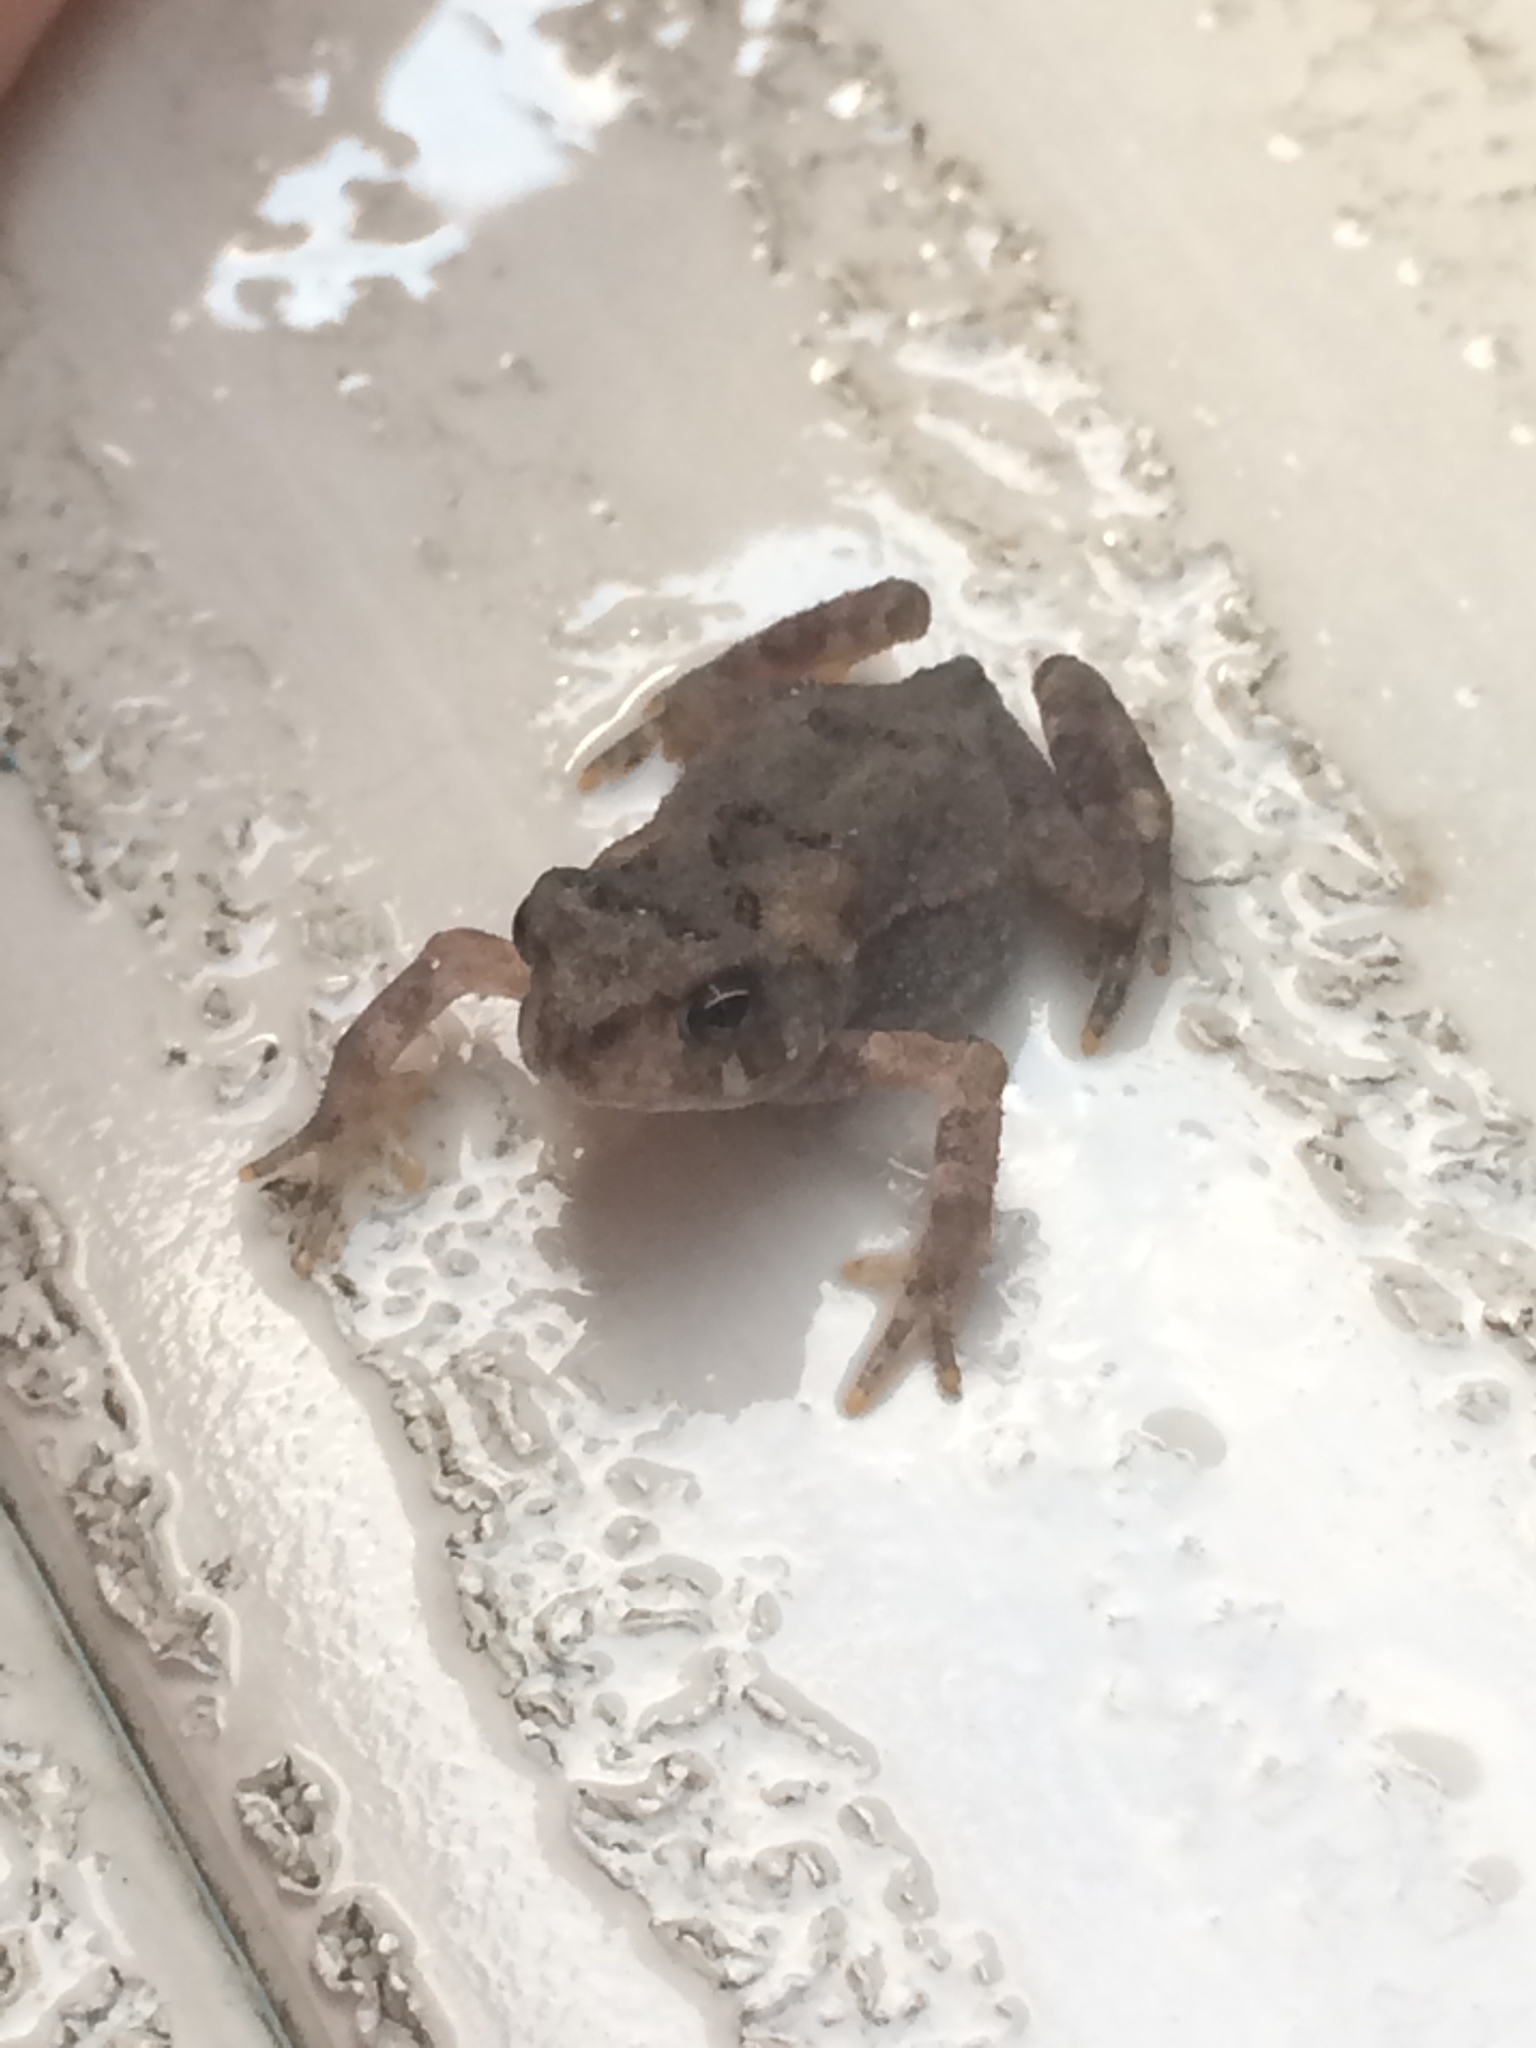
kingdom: Animalia
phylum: Chordata
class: Amphibia
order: Anura
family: Bufonidae
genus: Anaxyrus
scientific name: Anaxyrus americanus
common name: American toad
